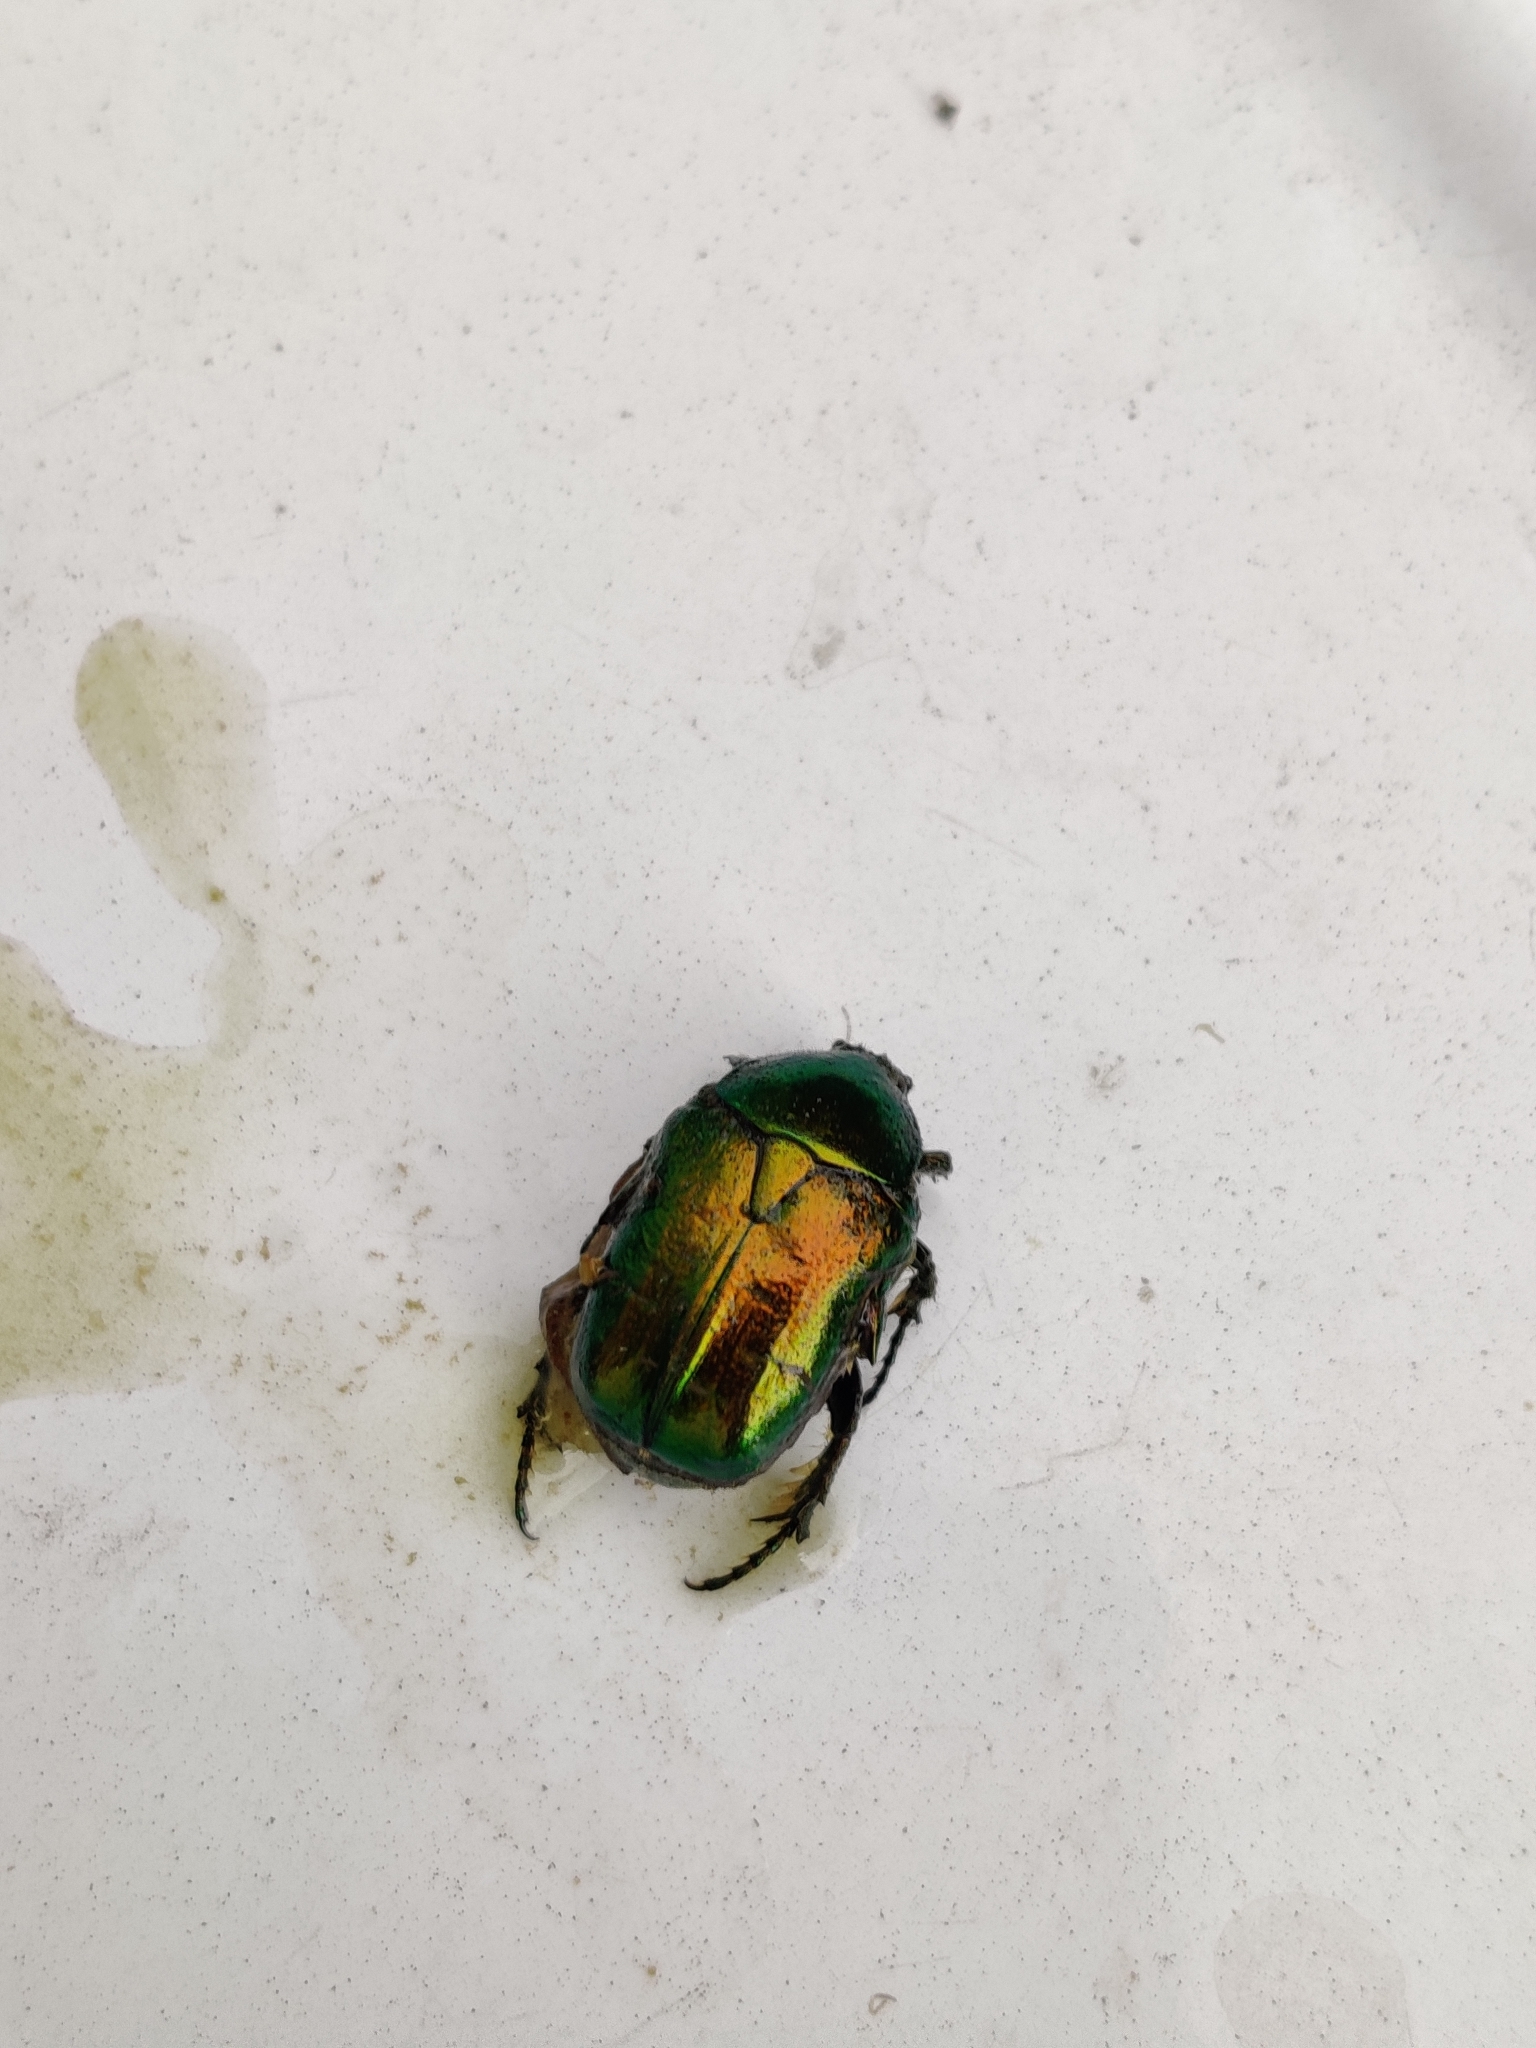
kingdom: Animalia
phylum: Arthropoda
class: Insecta
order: Coleoptera
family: Scarabaeidae
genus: Cetonia
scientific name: Cetonia aurata
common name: Rose chafer
